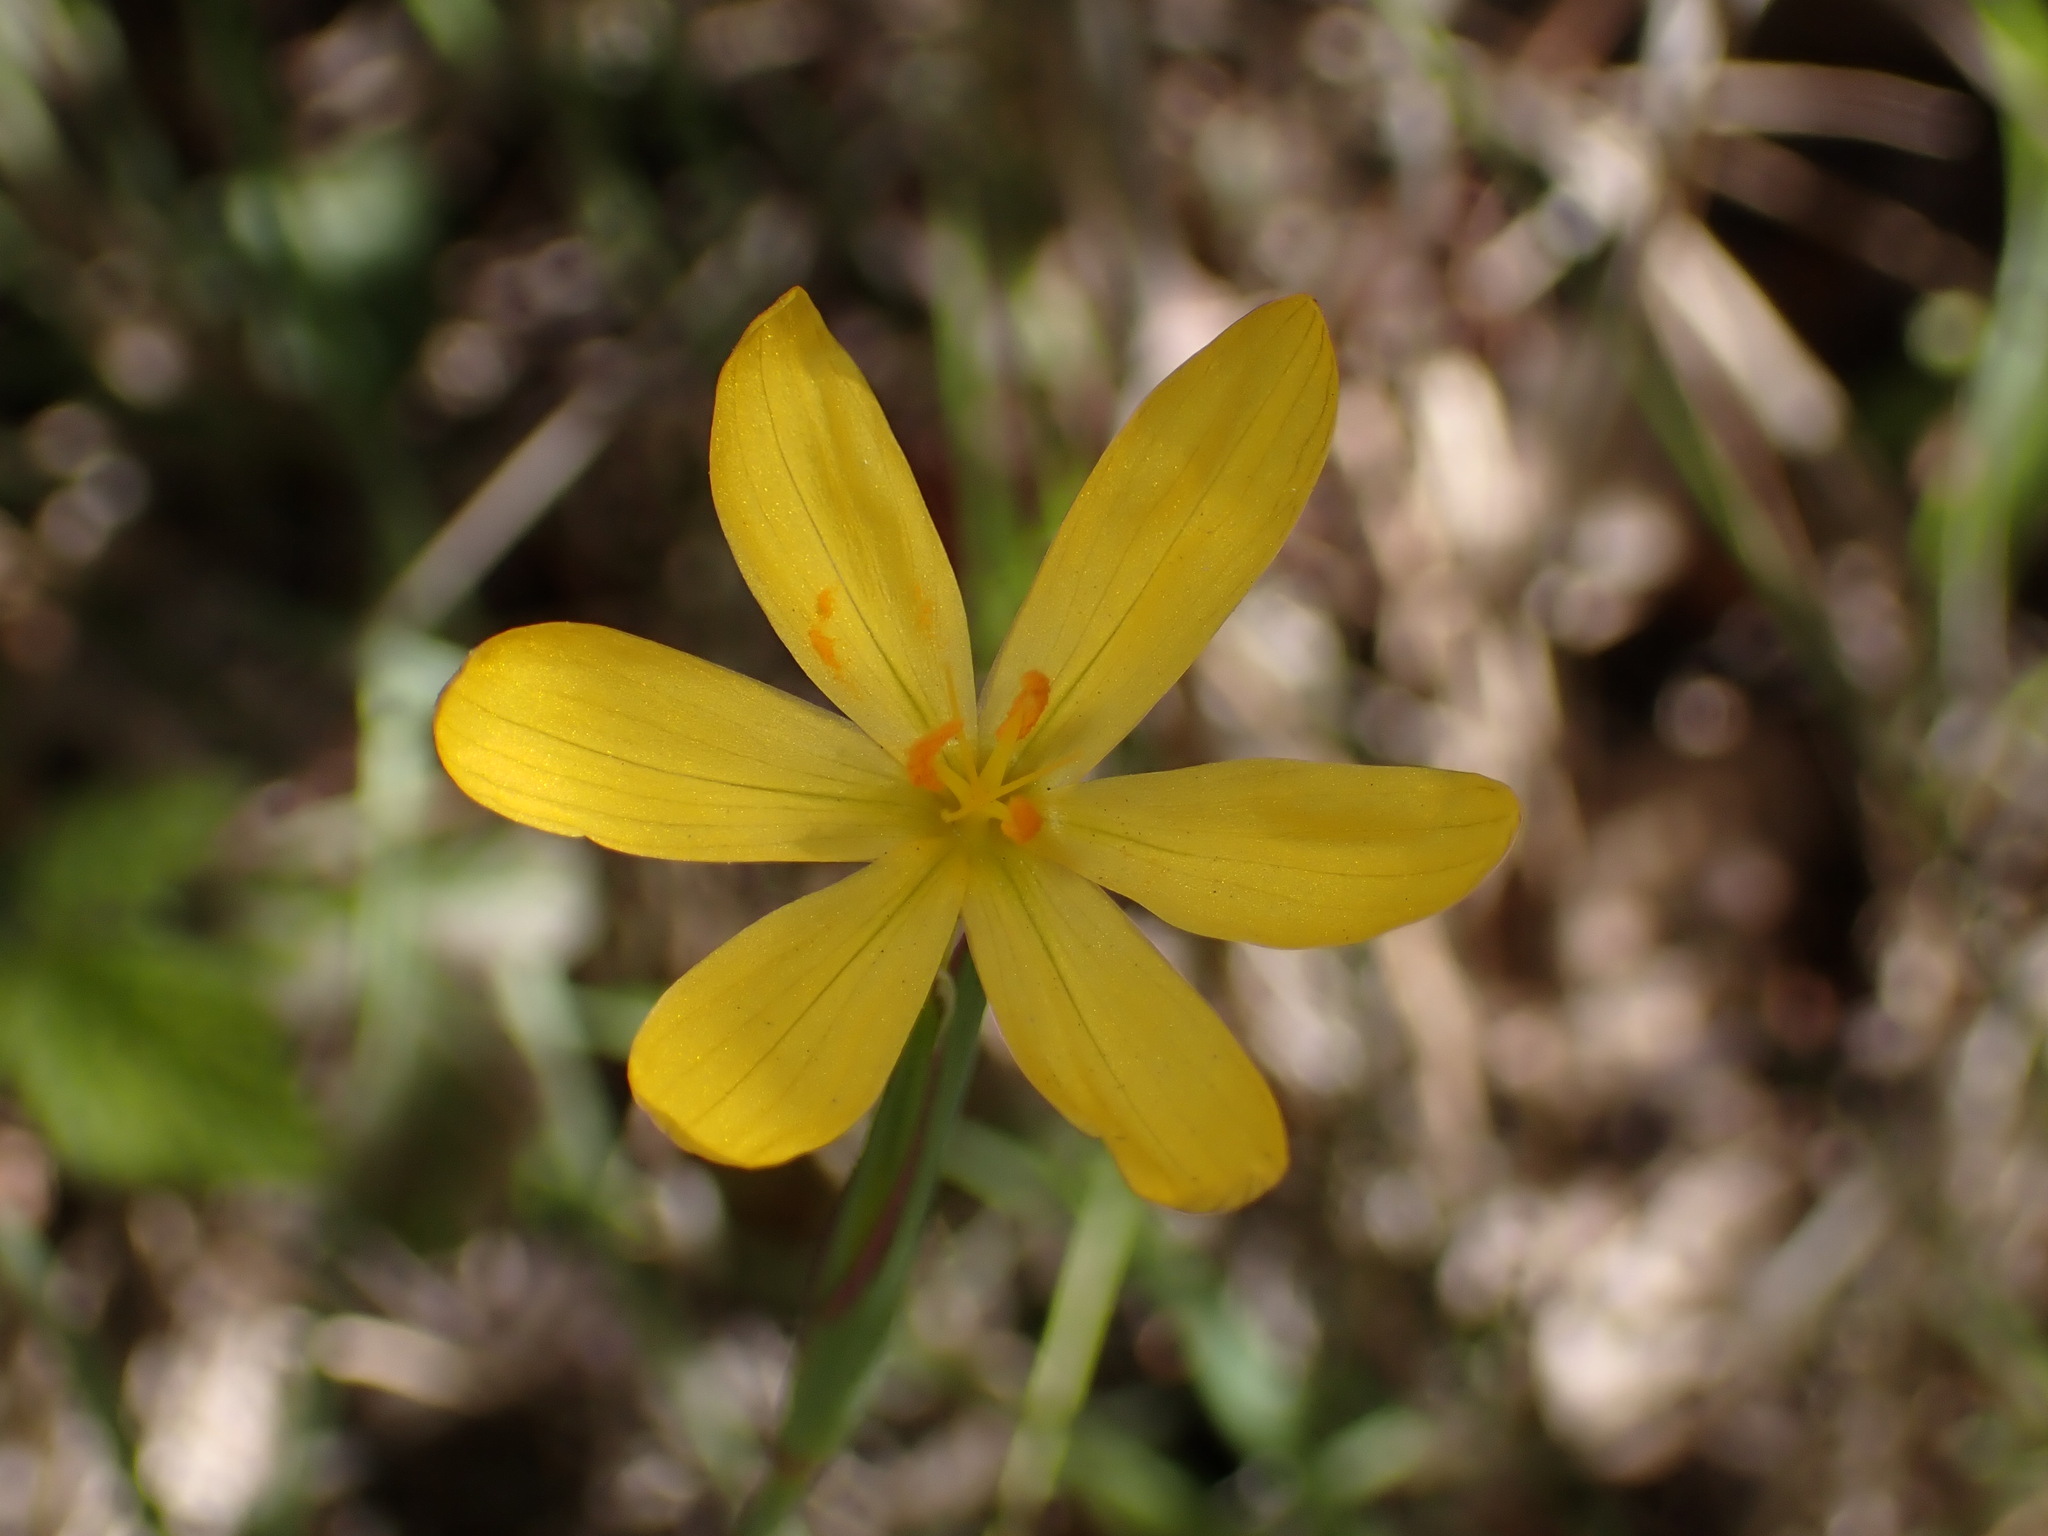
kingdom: Plantae
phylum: Tracheophyta
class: Liliopsida
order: Asparagales
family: Iridaceae
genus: Sisyrinchium
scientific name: Sisyrinchium californicum
